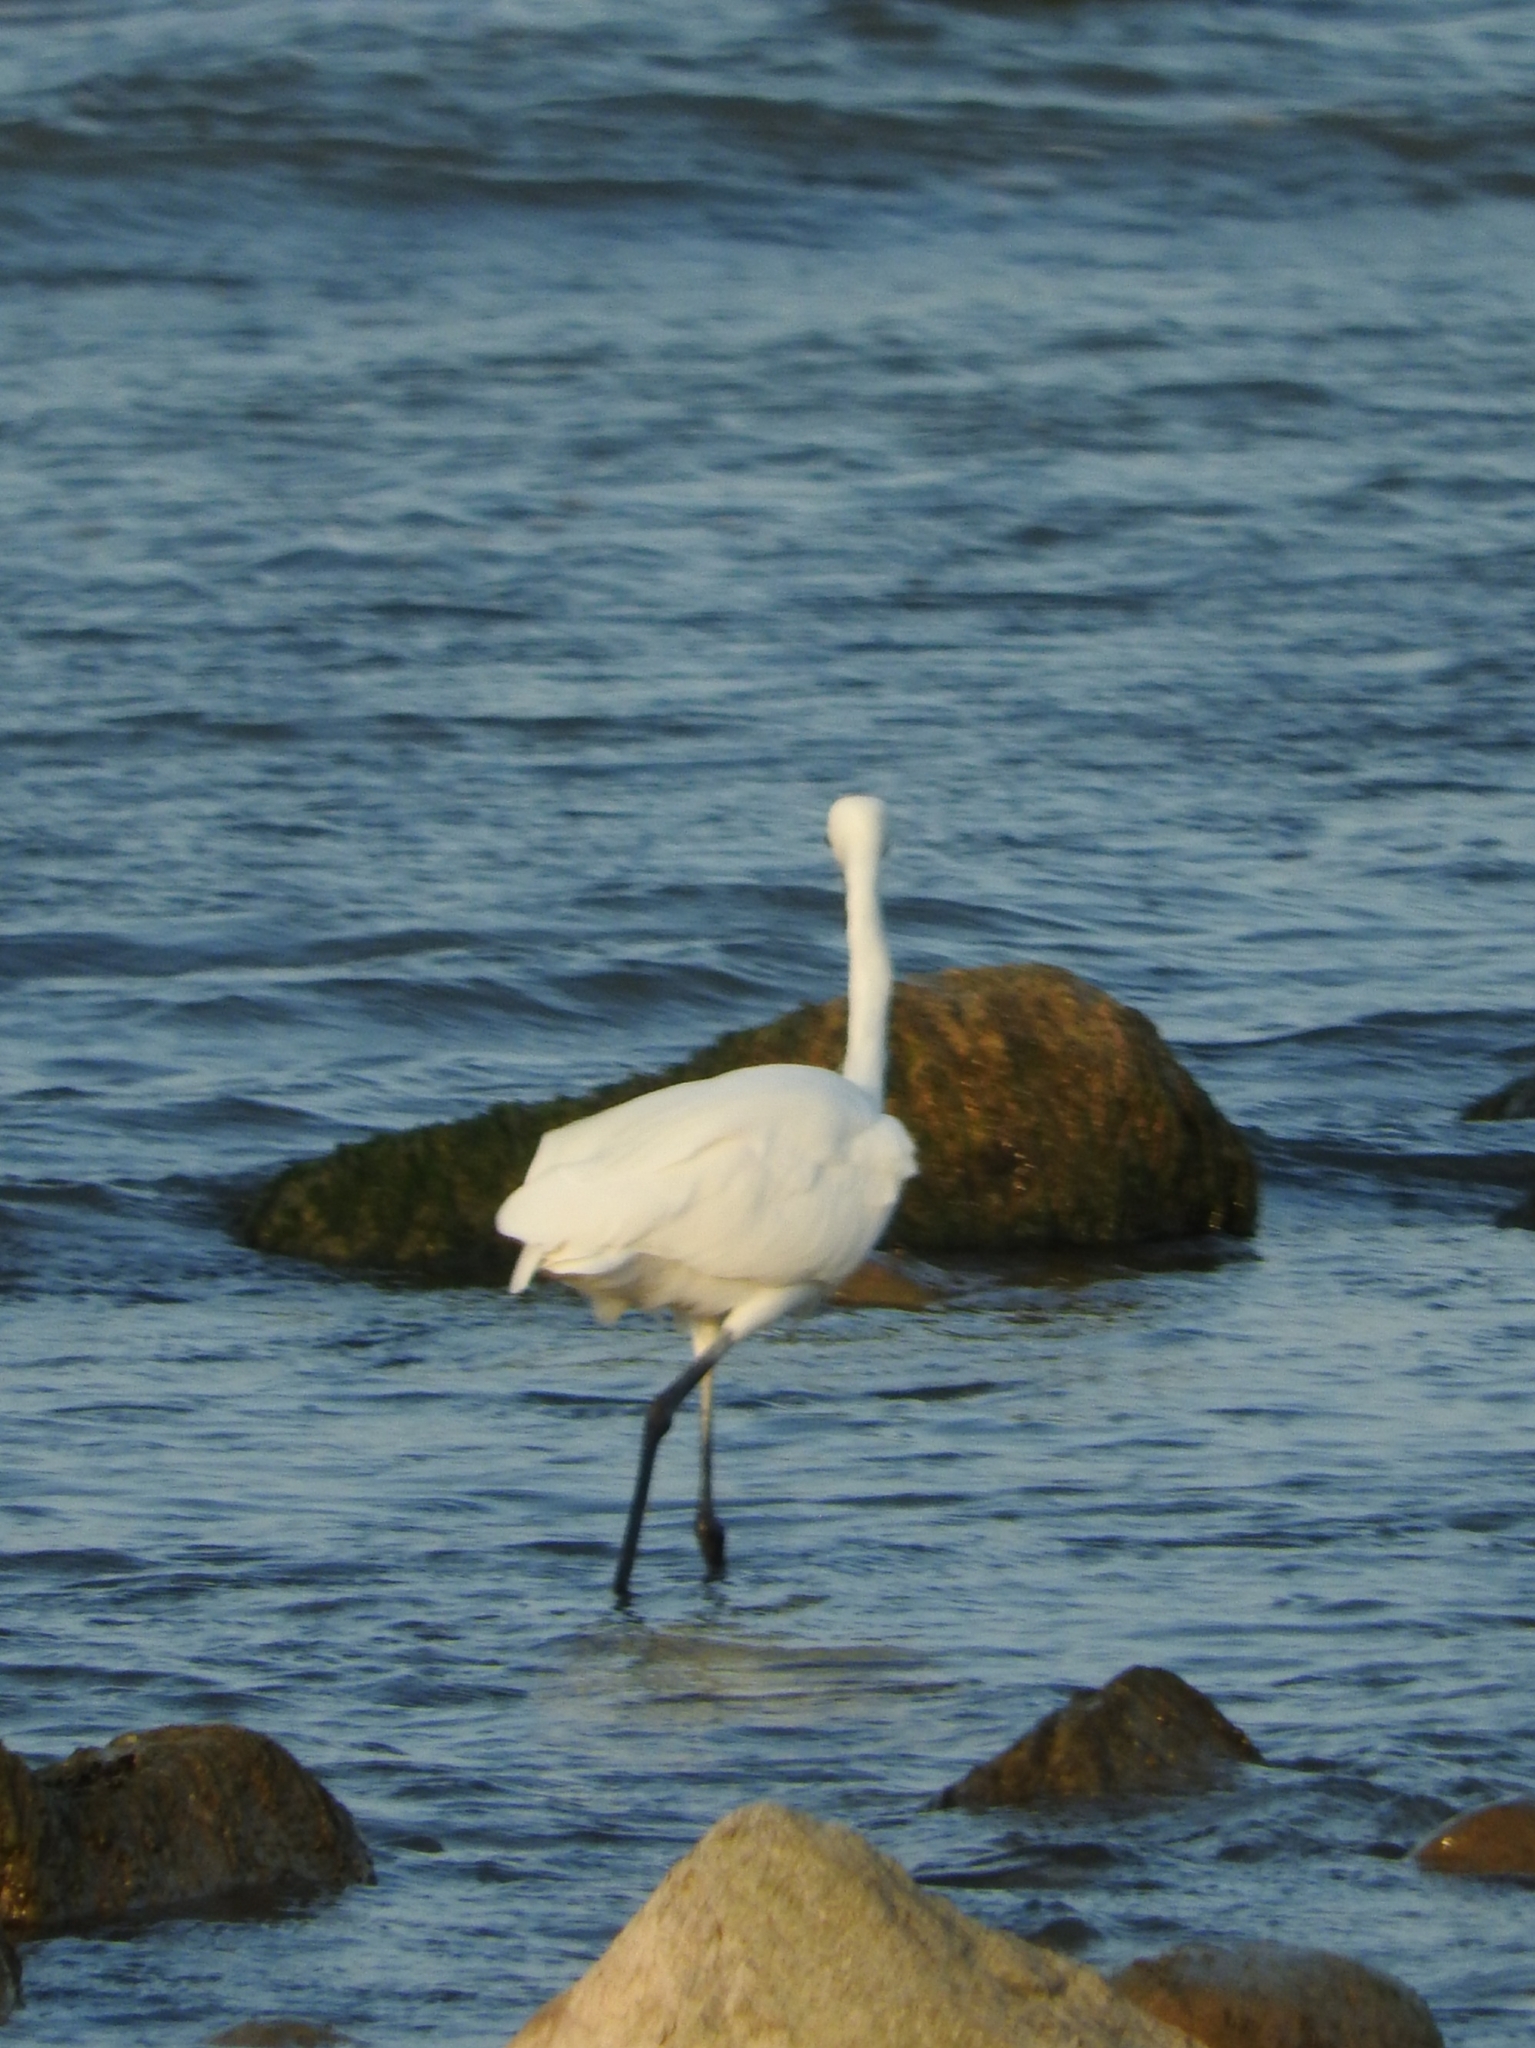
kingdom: Animalia
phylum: Chordata
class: Aves
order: Pelecaniformes
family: Ardeidae
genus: Egretta
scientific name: Egretta garzetta
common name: Little egret
